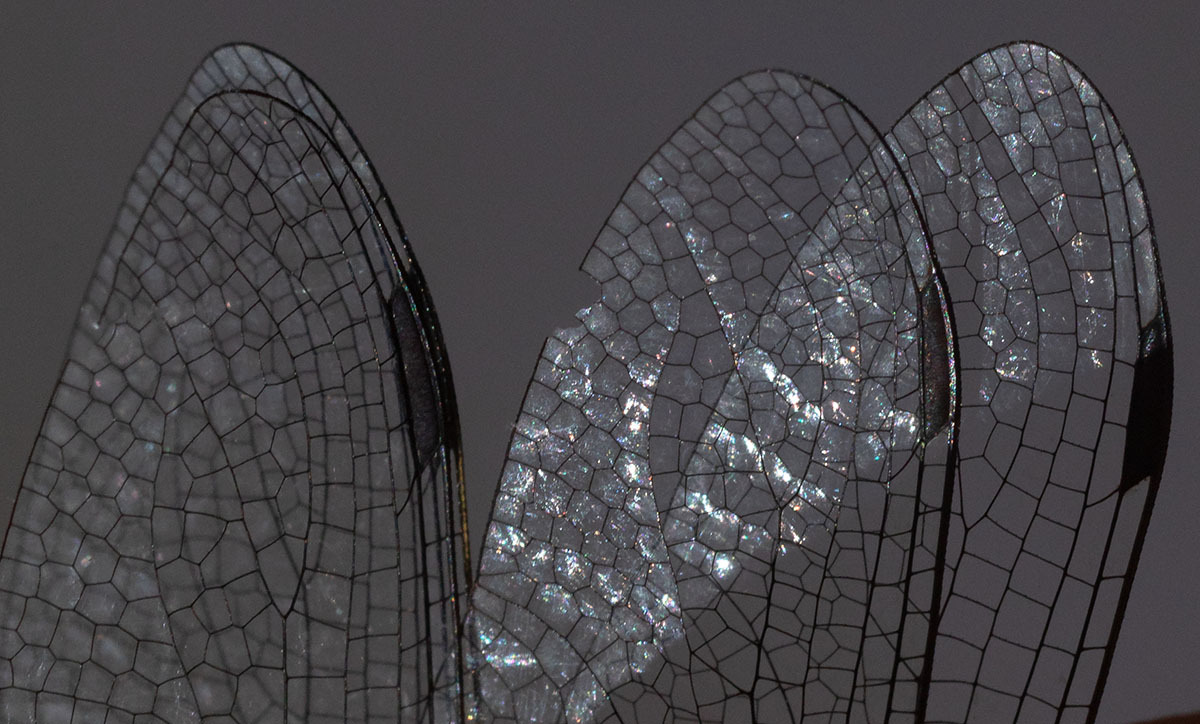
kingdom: Animalia
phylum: Arthropoda
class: Insecta
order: Odonata
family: Aeshnidae
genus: Rhionaeschna
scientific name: Rhionaeschna californica
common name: California darner
